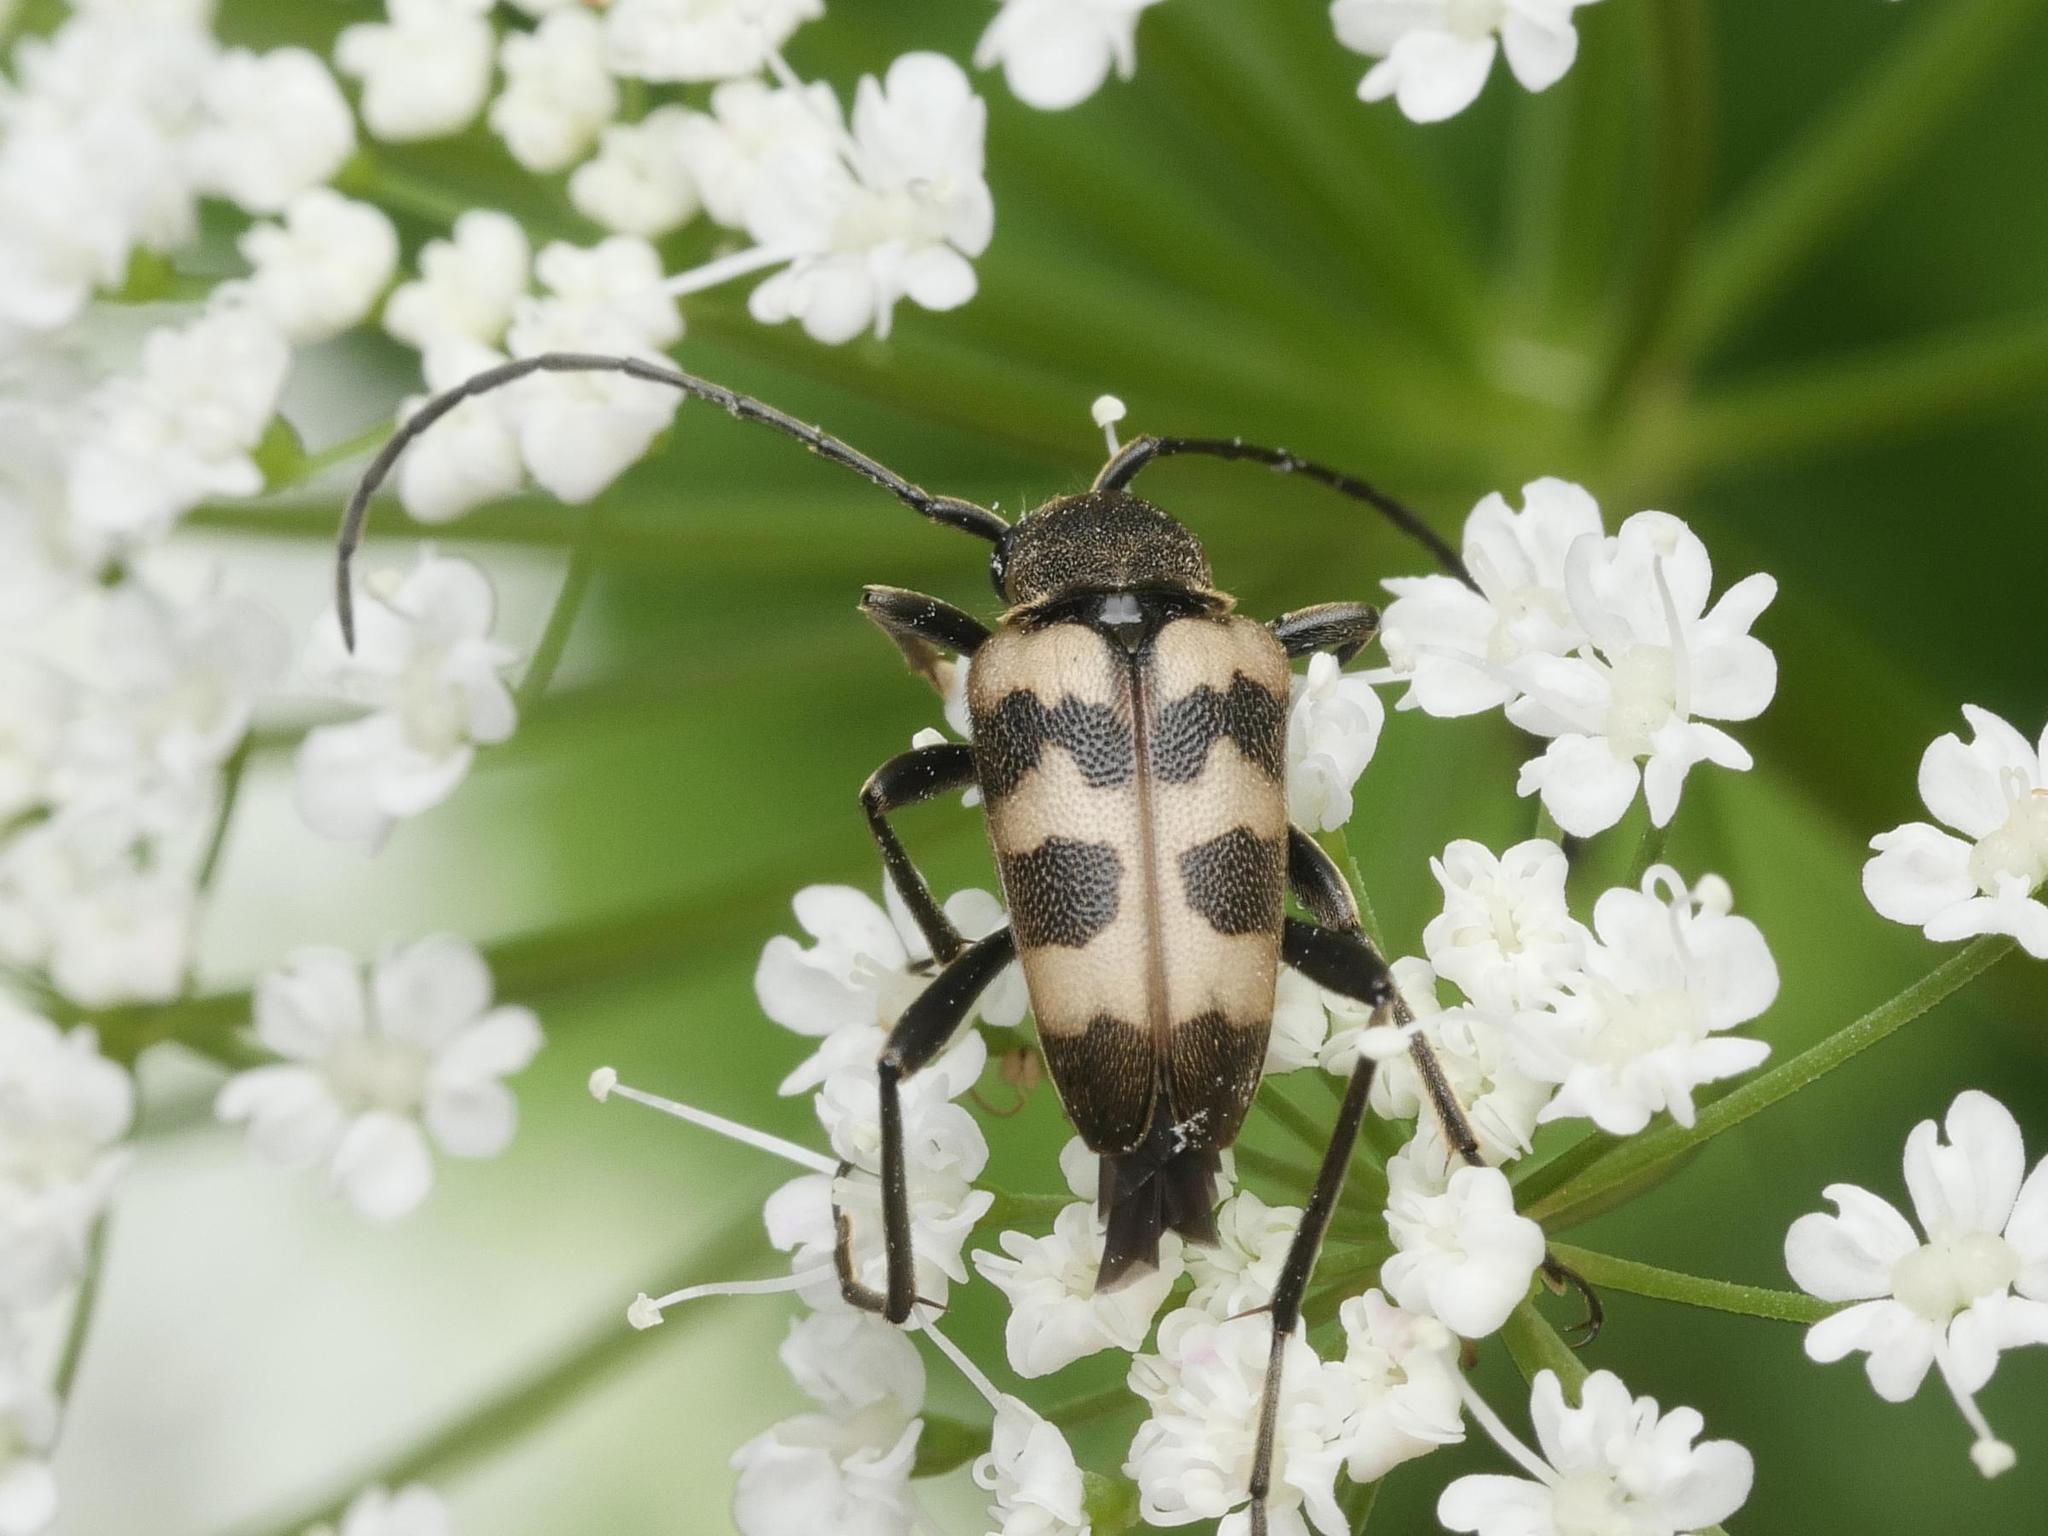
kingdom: Animalia
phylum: Arthropoda
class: Insecta
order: Coleoptera
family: Cerambycidae
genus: Pachytodes
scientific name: Pachytodes cerambyciformis
